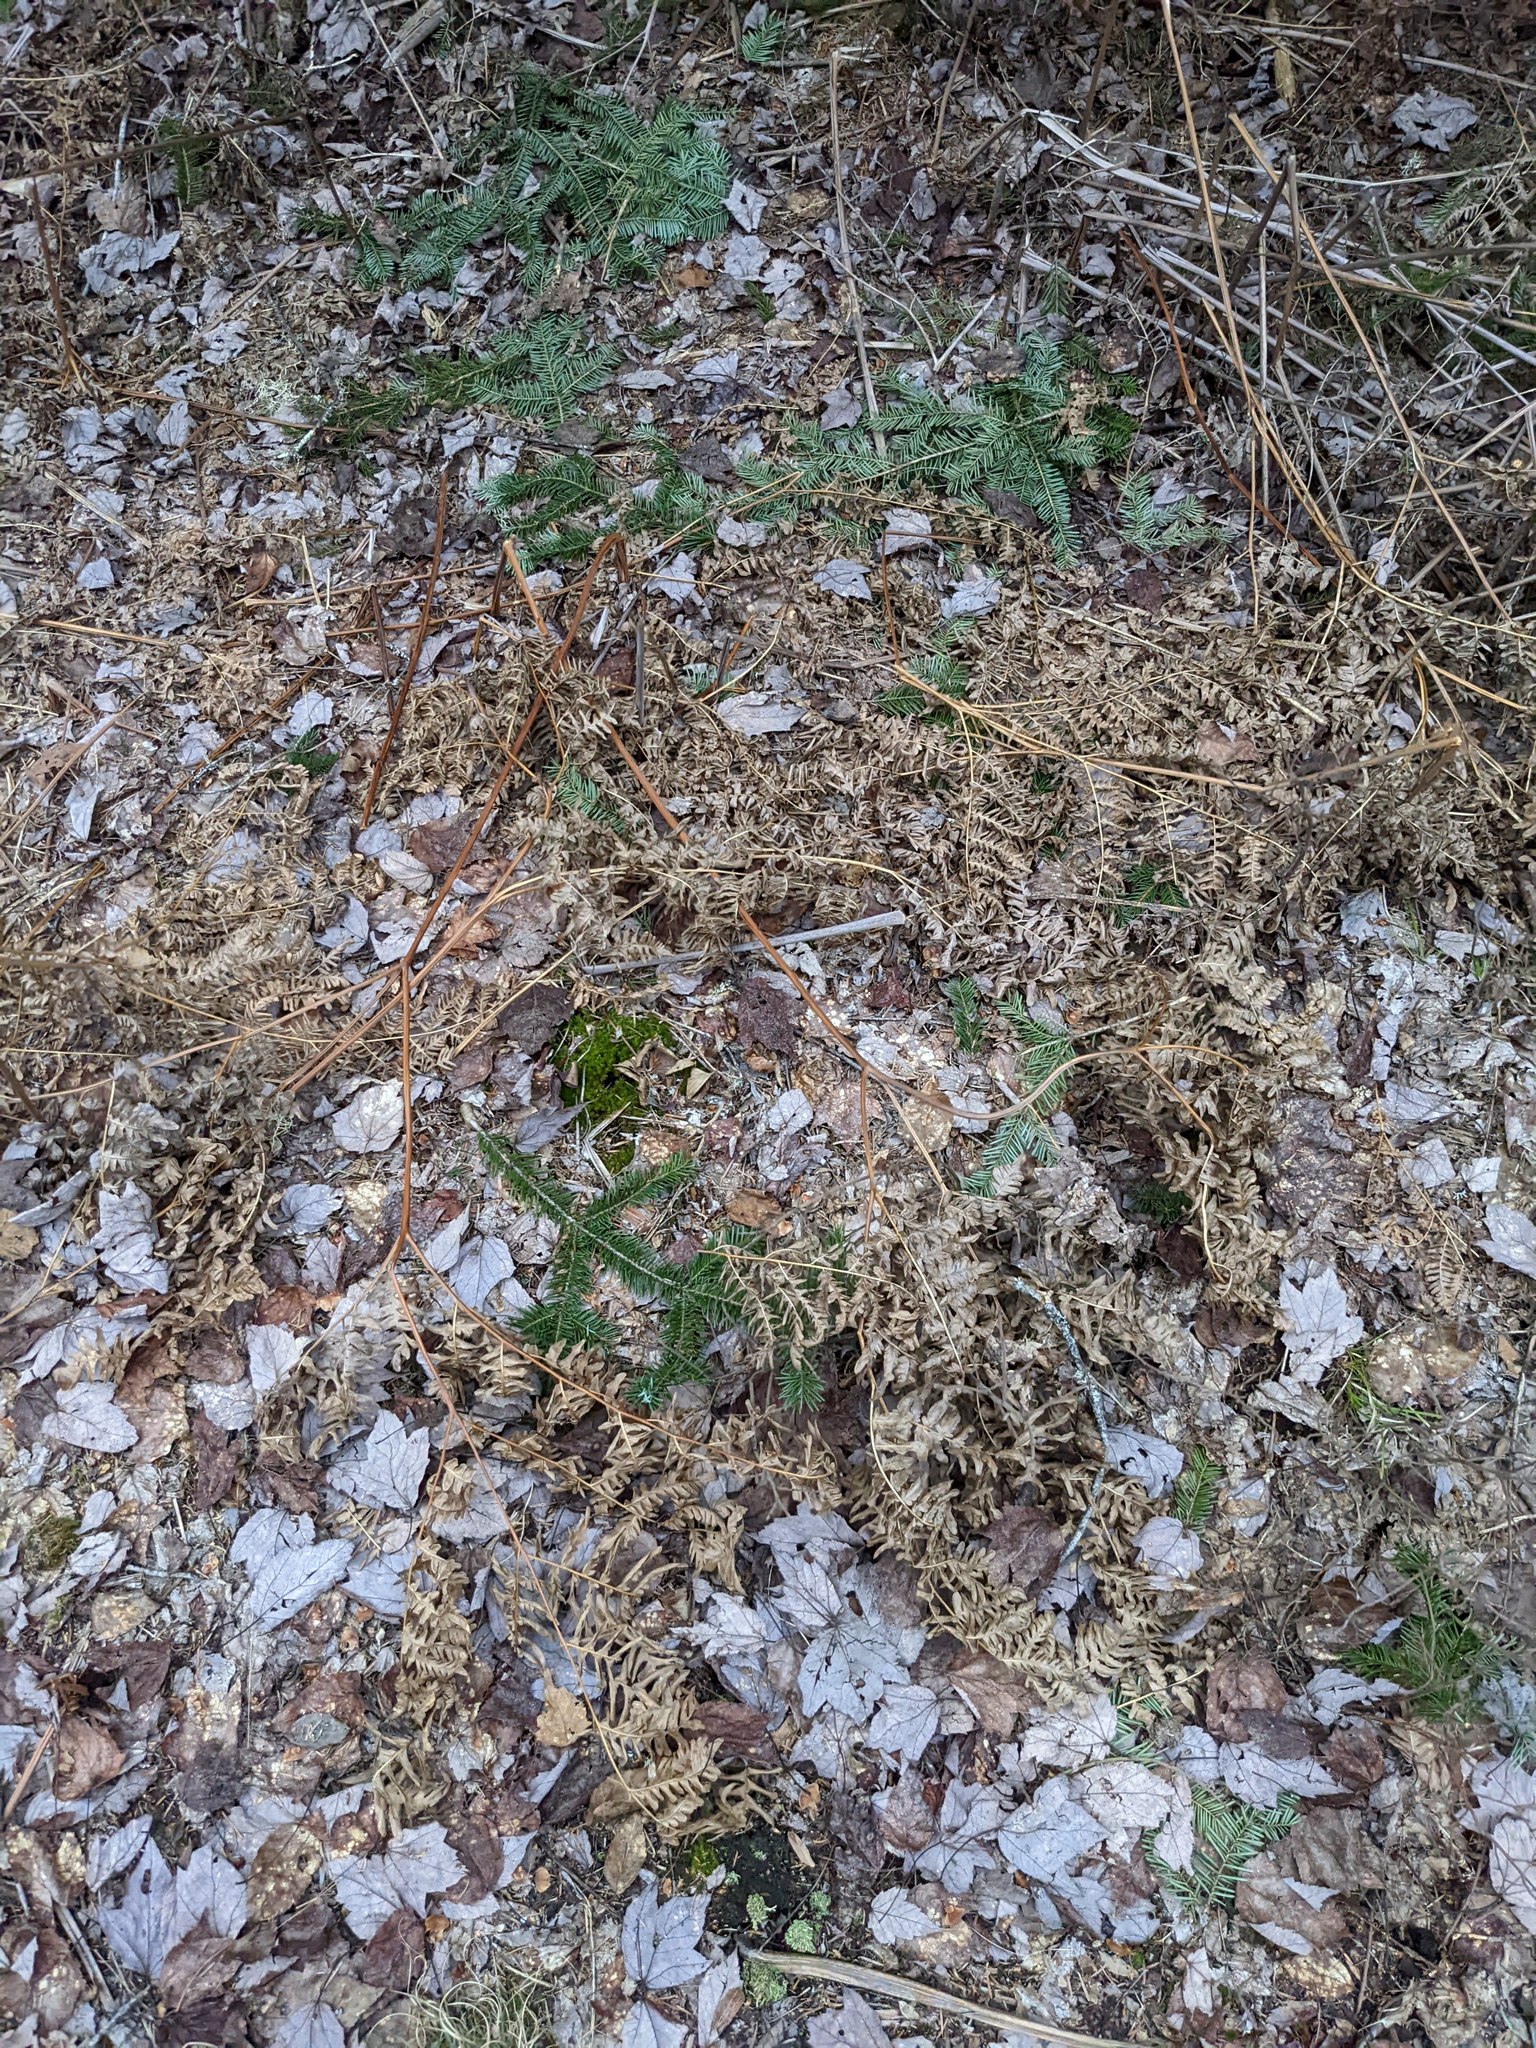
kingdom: Plantae
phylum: Tracheophyta
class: Polypodiopsida
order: Polypodiales
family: Dennstaedtiaceae
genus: Pteridium
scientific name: Pteridium aquilinum
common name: Bracken
